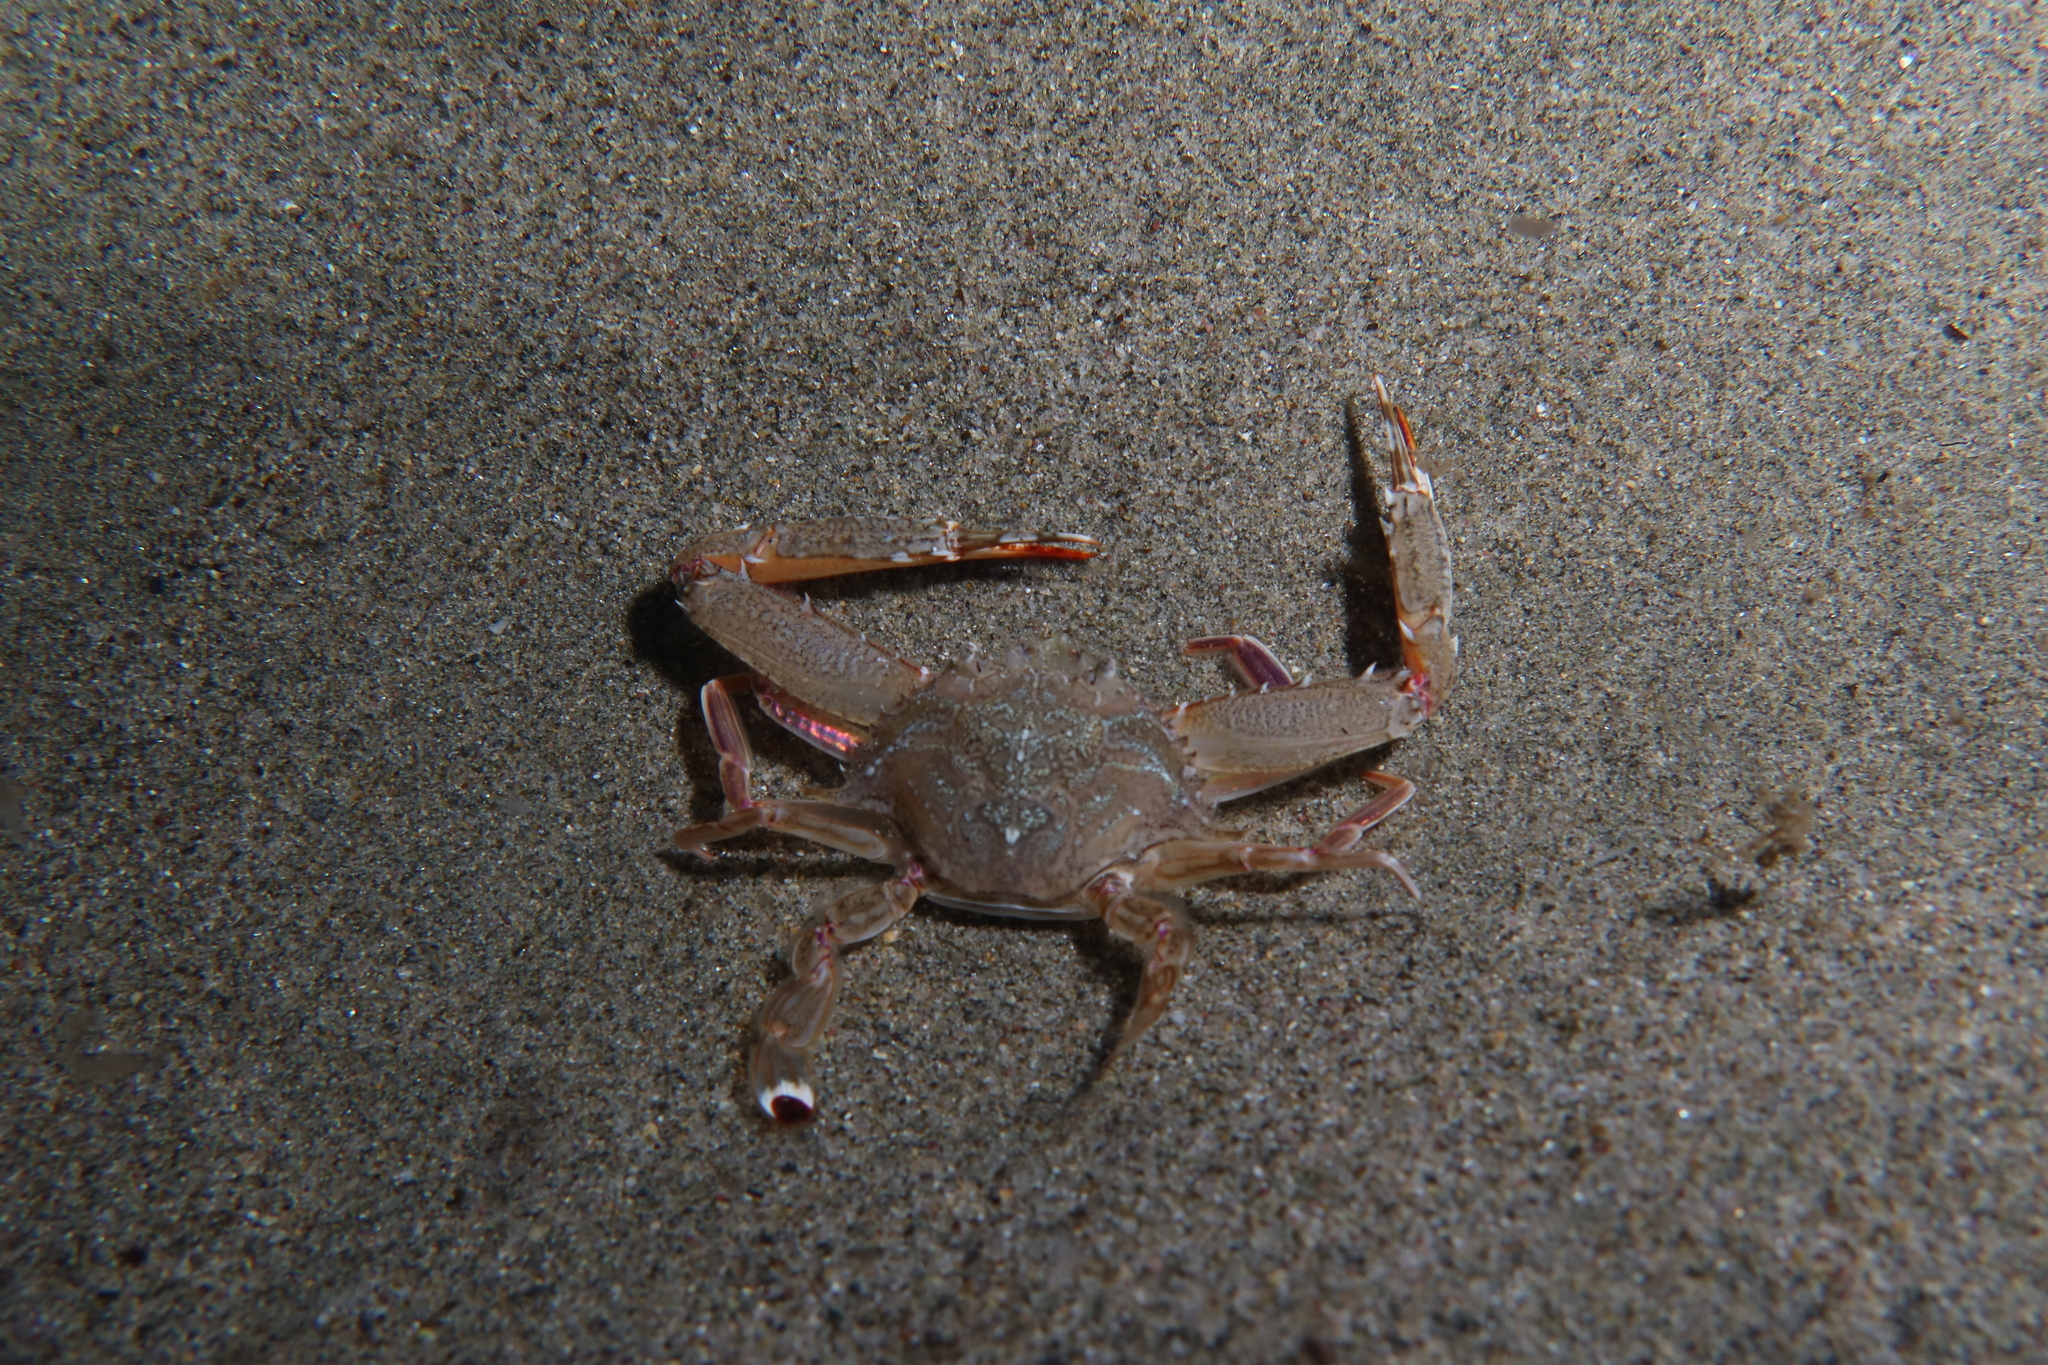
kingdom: Animalia
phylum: Arthropoda
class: Malacostraca
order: Decapoda
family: Portunidae
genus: Achelous
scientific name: Achelous hastatus
